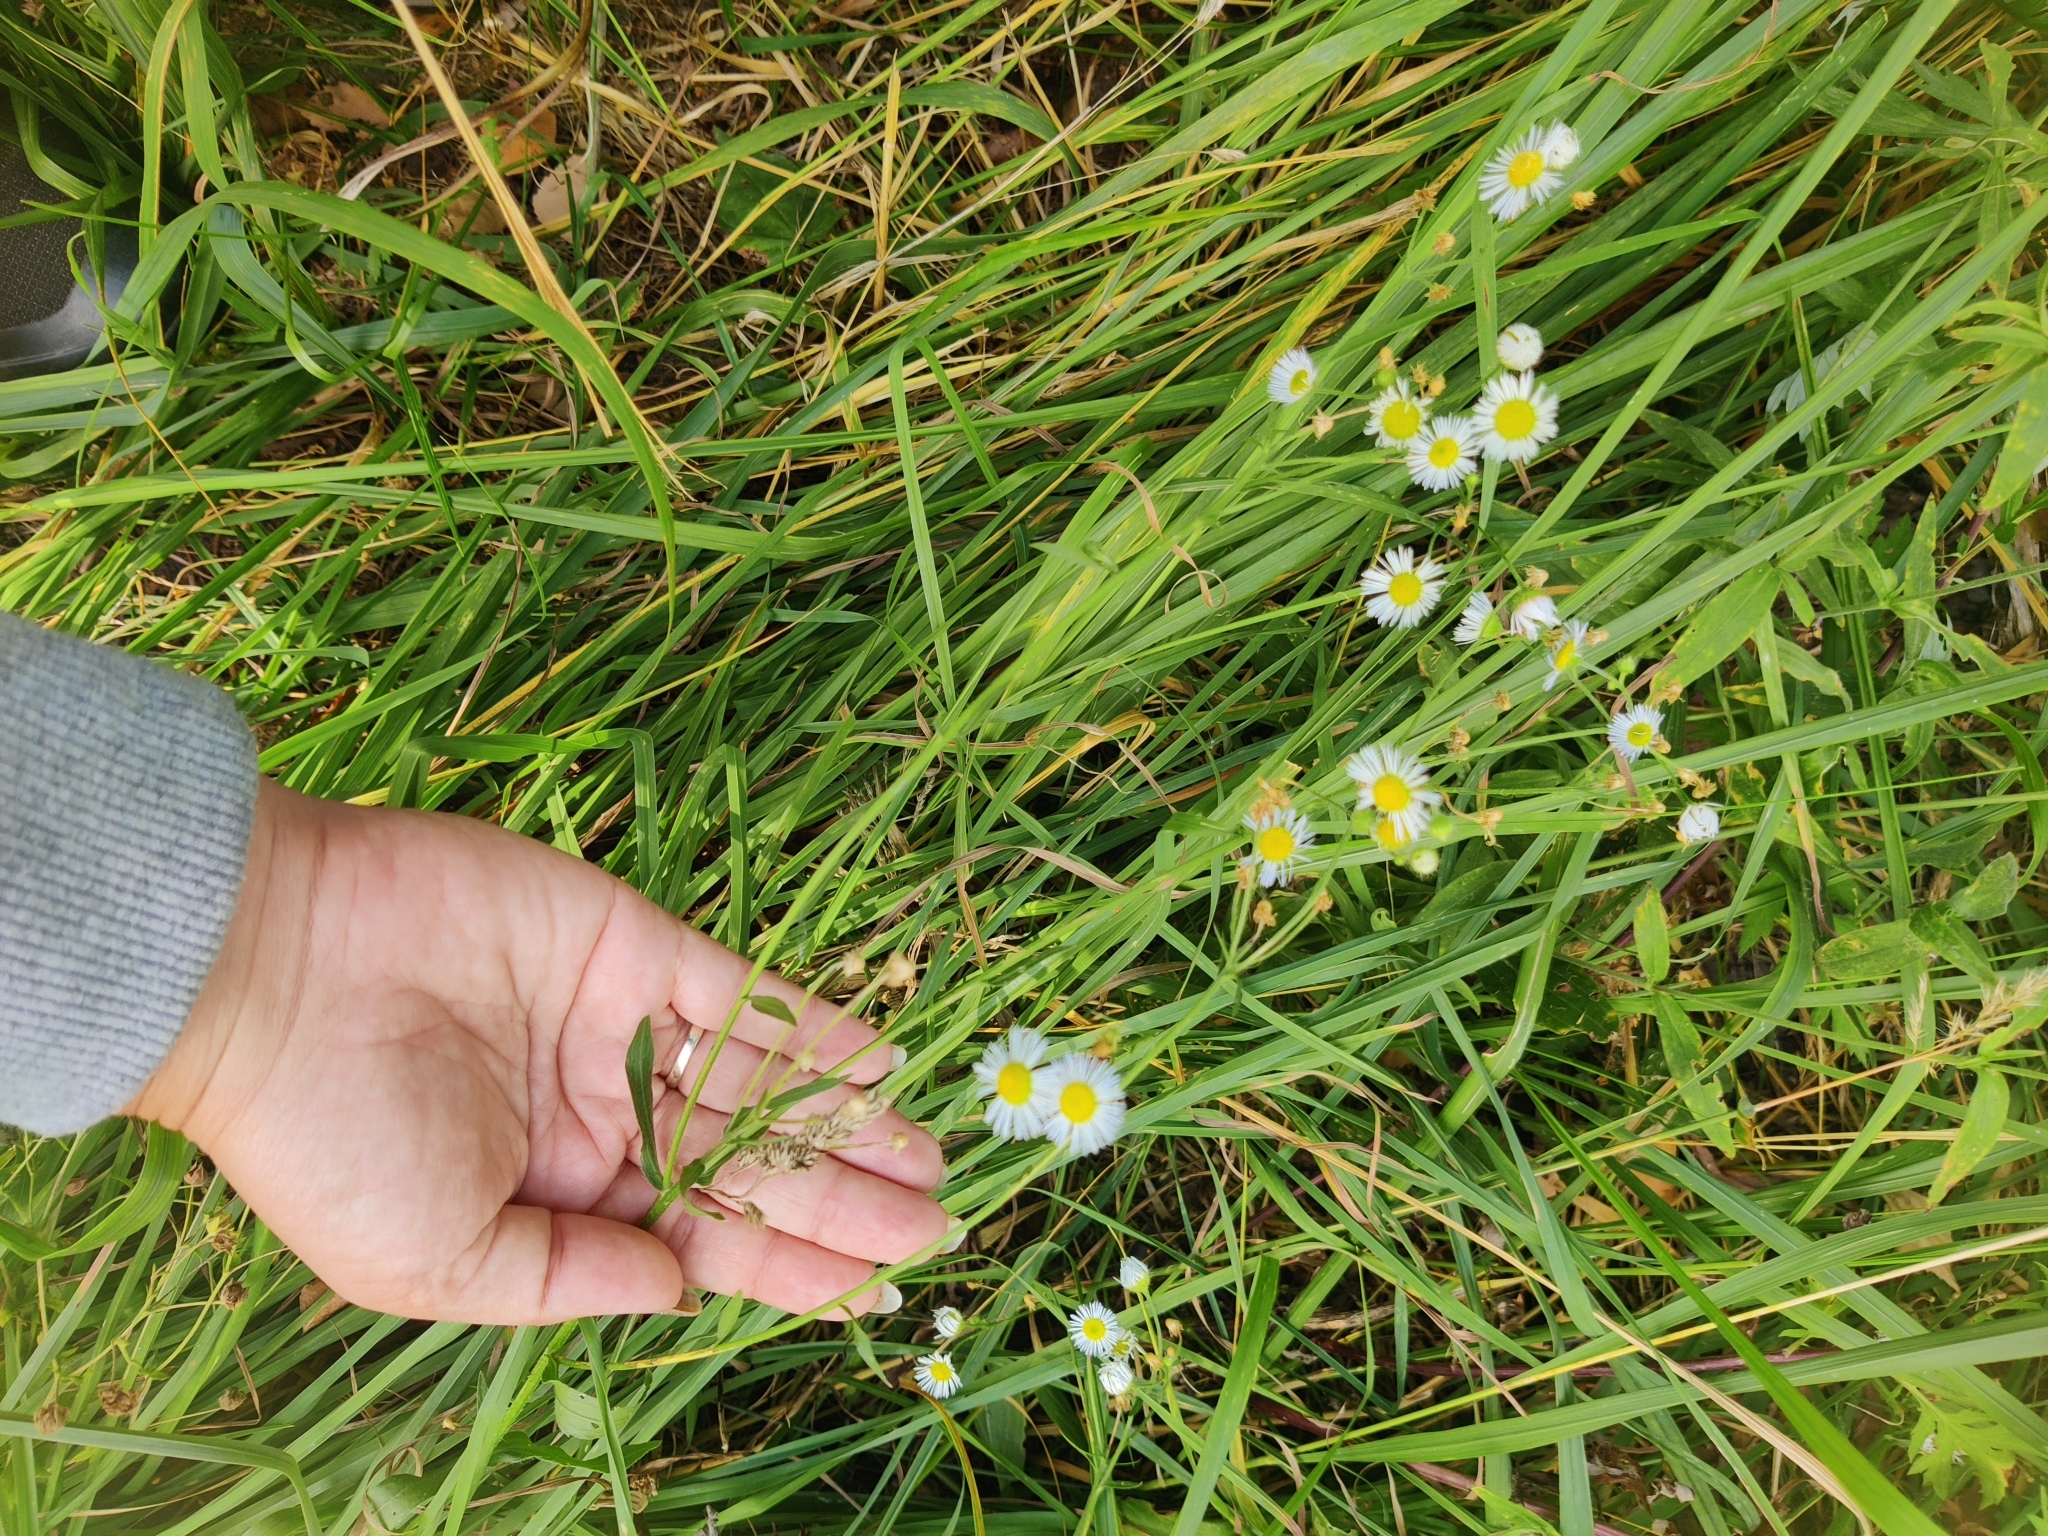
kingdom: Plantae
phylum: Tracheophyta
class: Magnoliopsida
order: Asterales
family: Asteraceae
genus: Erigeron
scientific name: Erigeron strigosus
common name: Common eastern fleabane
